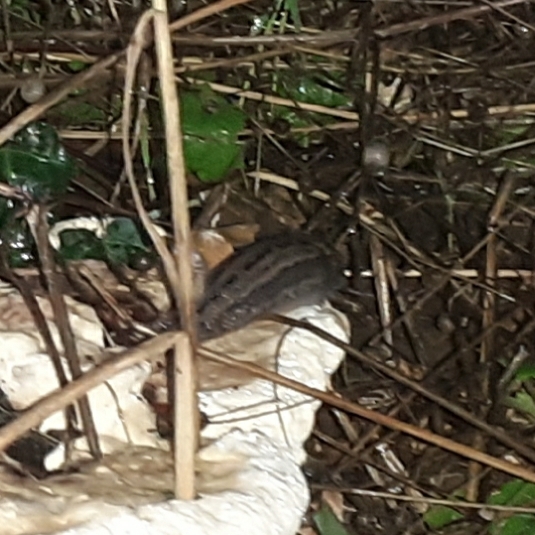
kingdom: Animalia
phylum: Mollusca
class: Gastropoda
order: Stylommatophora
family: Limacidae
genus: Limax
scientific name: Limax maximus
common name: Great grey slug
